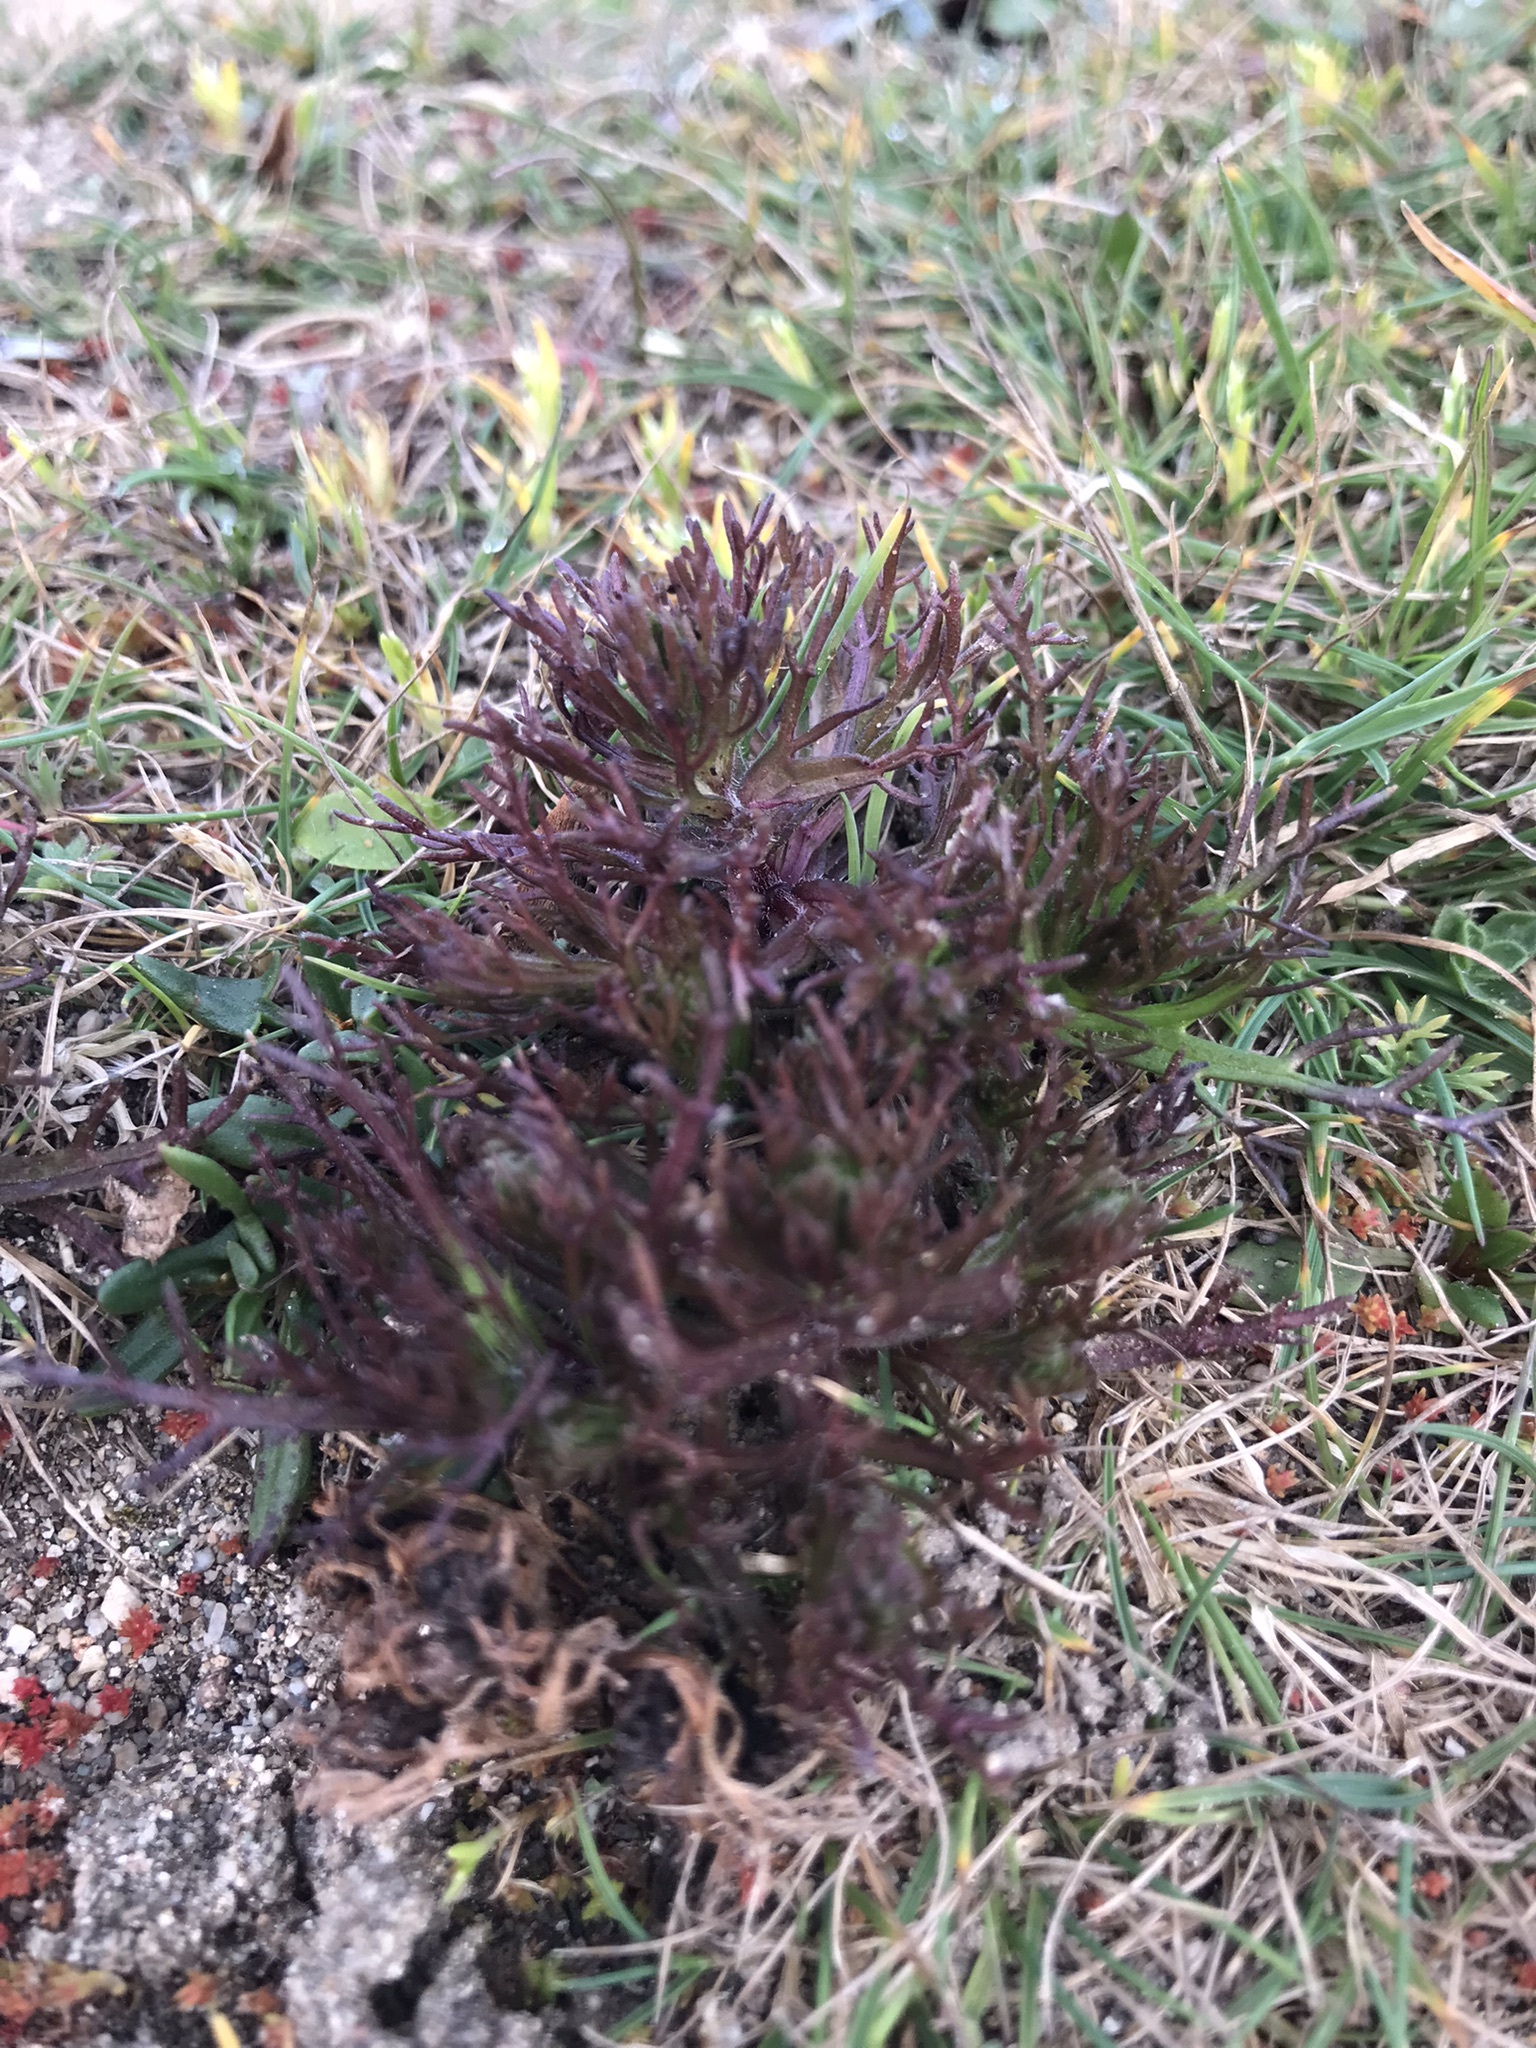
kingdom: Plantae
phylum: Tracheophyta
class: Magnoliopsida
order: Lamiales
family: Orobanchaceae
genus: Triphysaria
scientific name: Triphysaria pusilla
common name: Dwarf false owl-clover
